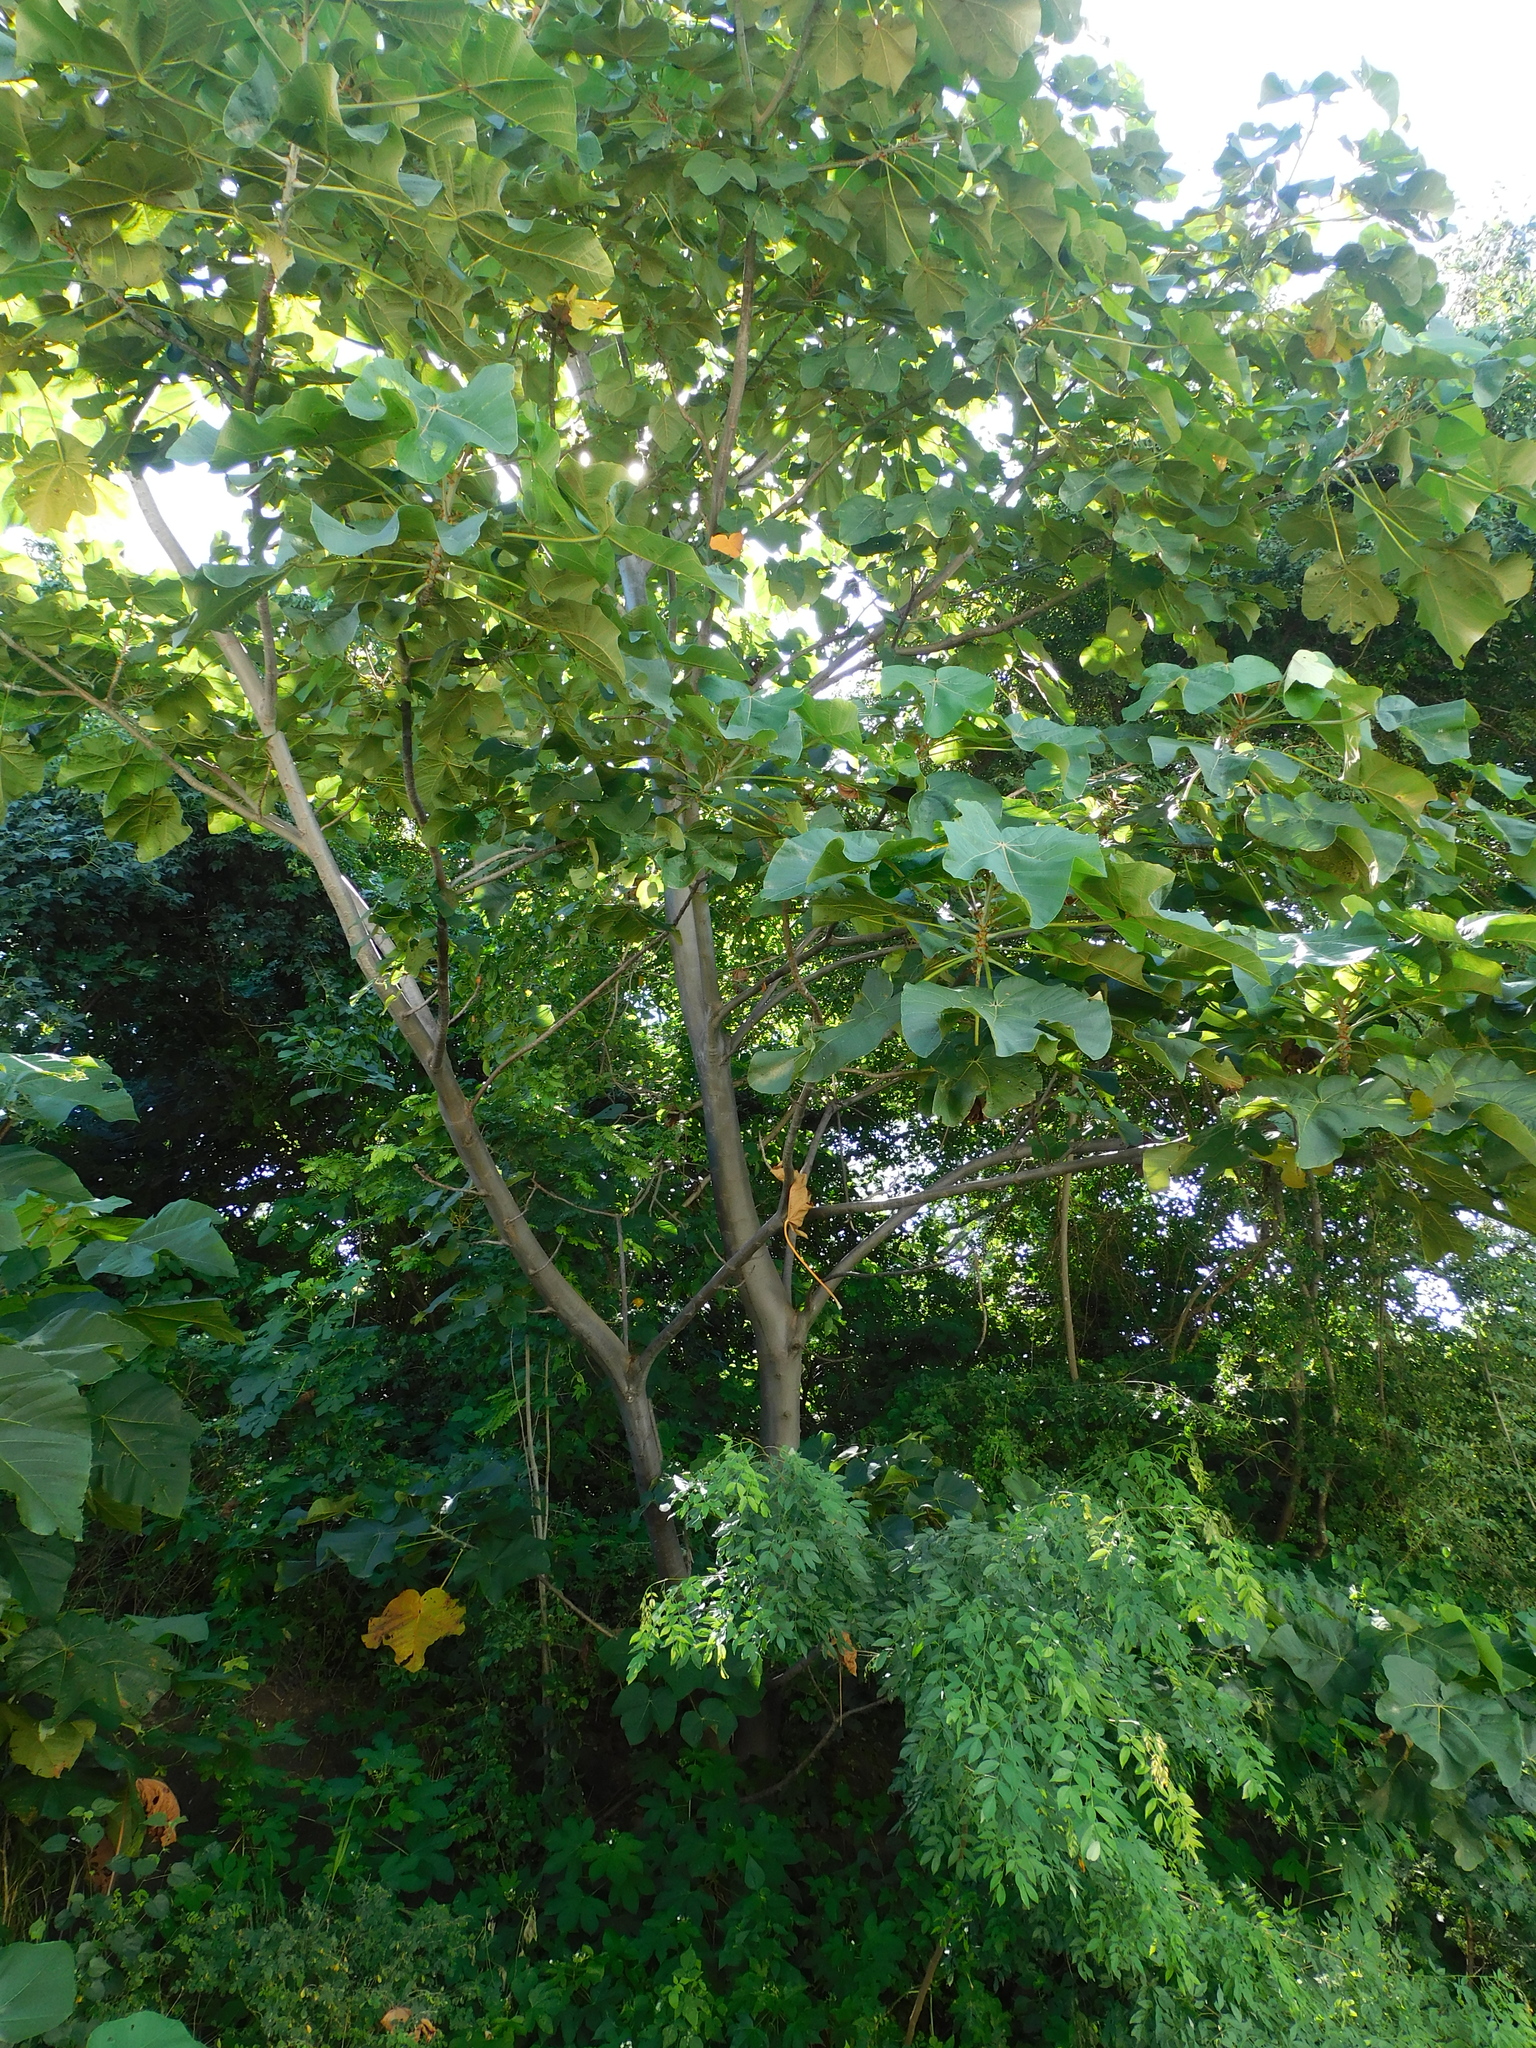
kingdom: Plantae
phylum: Tracheophyta
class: Magnoliopsida
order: Malvales
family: Malvaceae
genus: Ochroma
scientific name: Ochroma pyramidale
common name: Balsa
